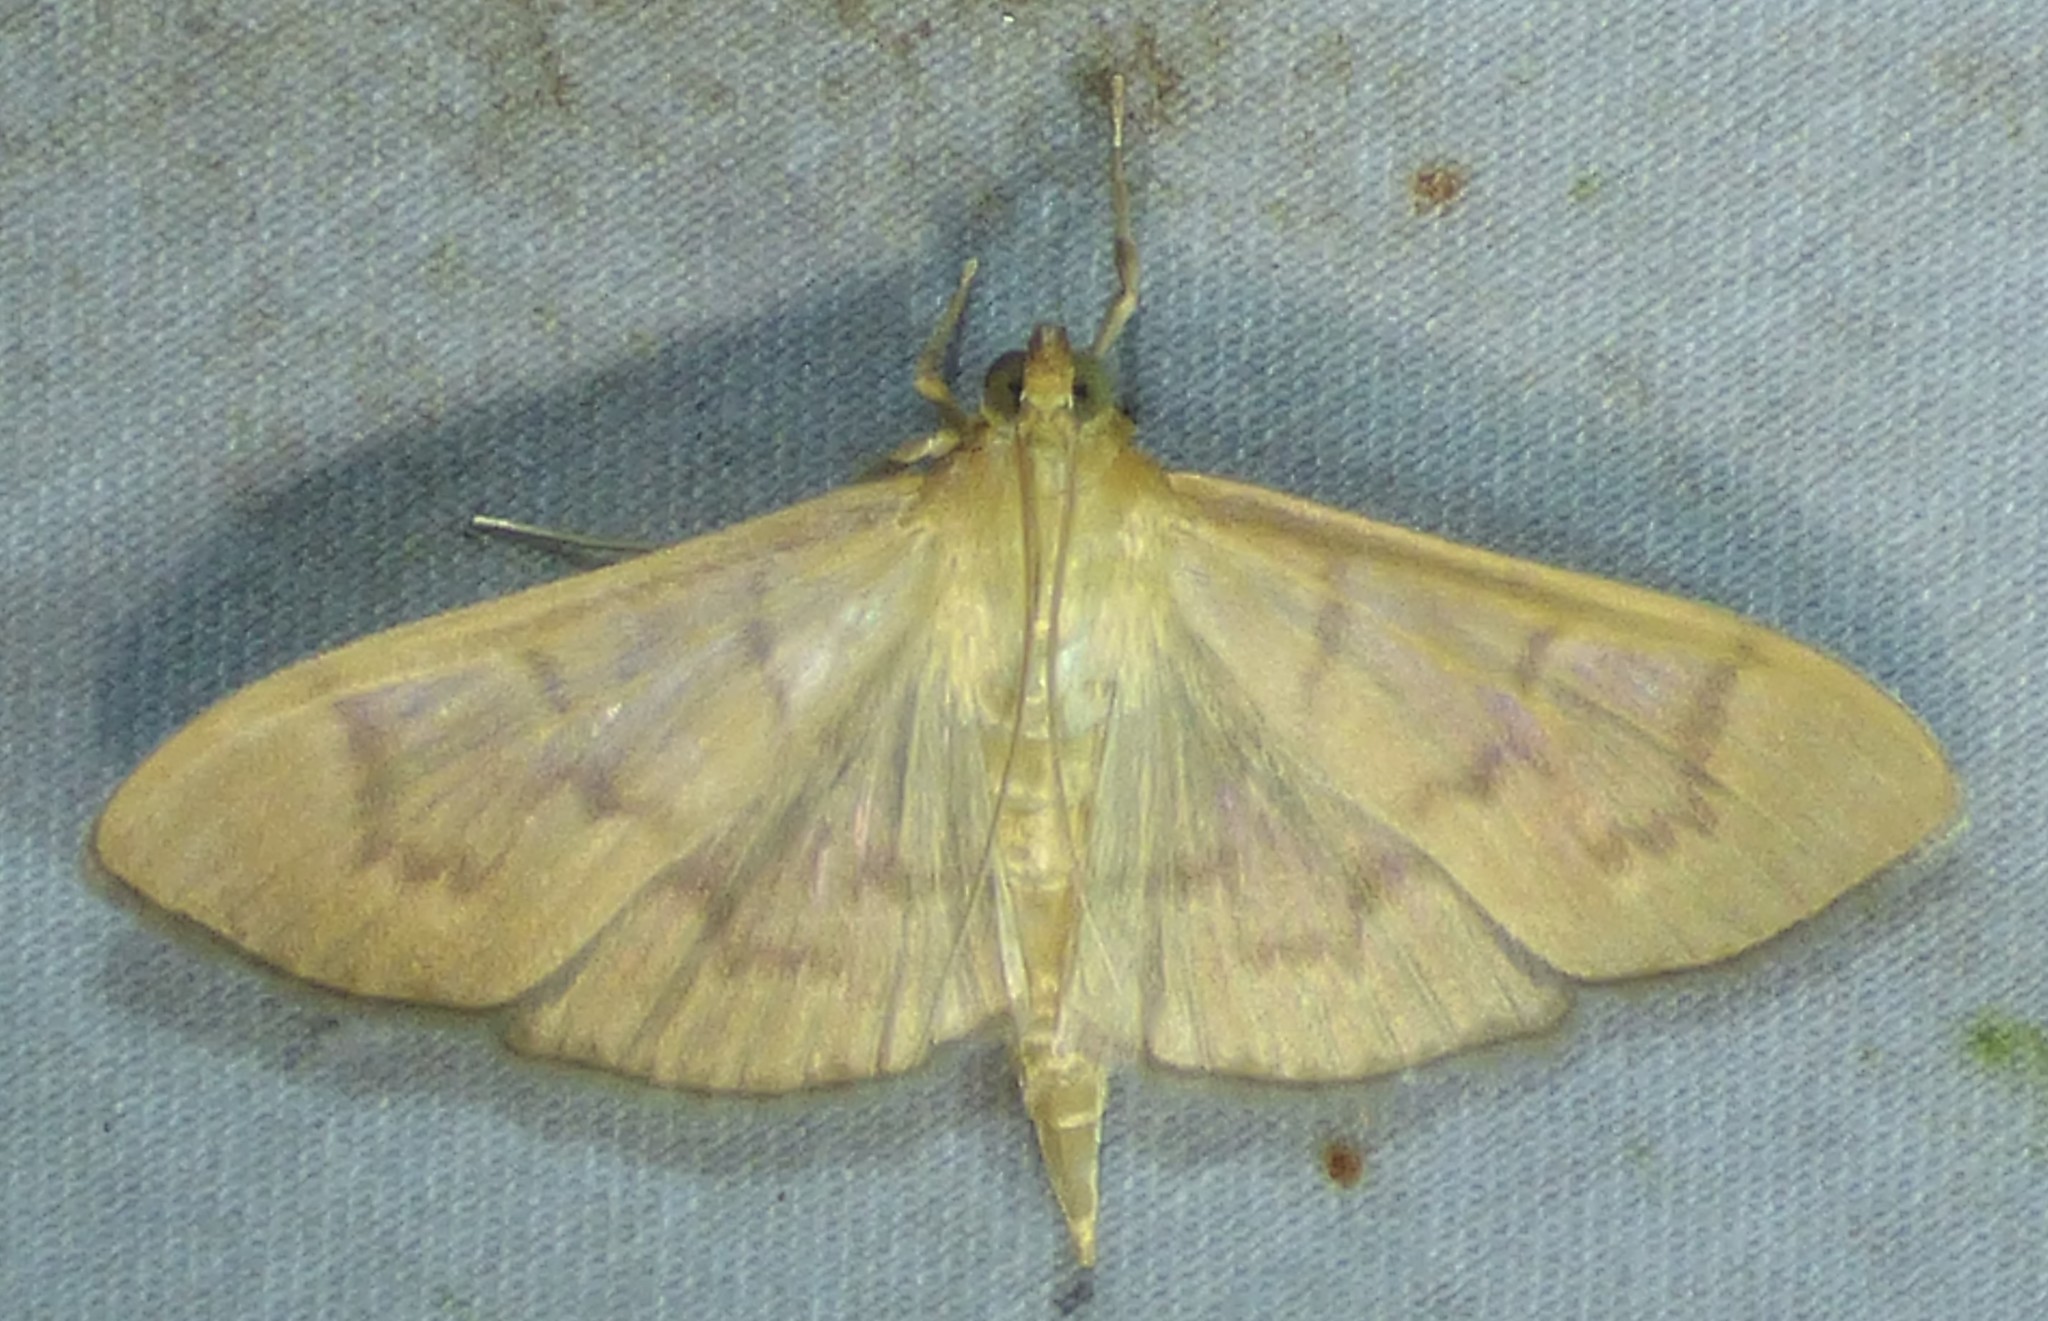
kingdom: Animalia
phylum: Arthropoda
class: Insecta
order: Lepidoptera
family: Crambidae
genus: Condylorrhiza
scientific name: Condylorrhiza vestigialis
